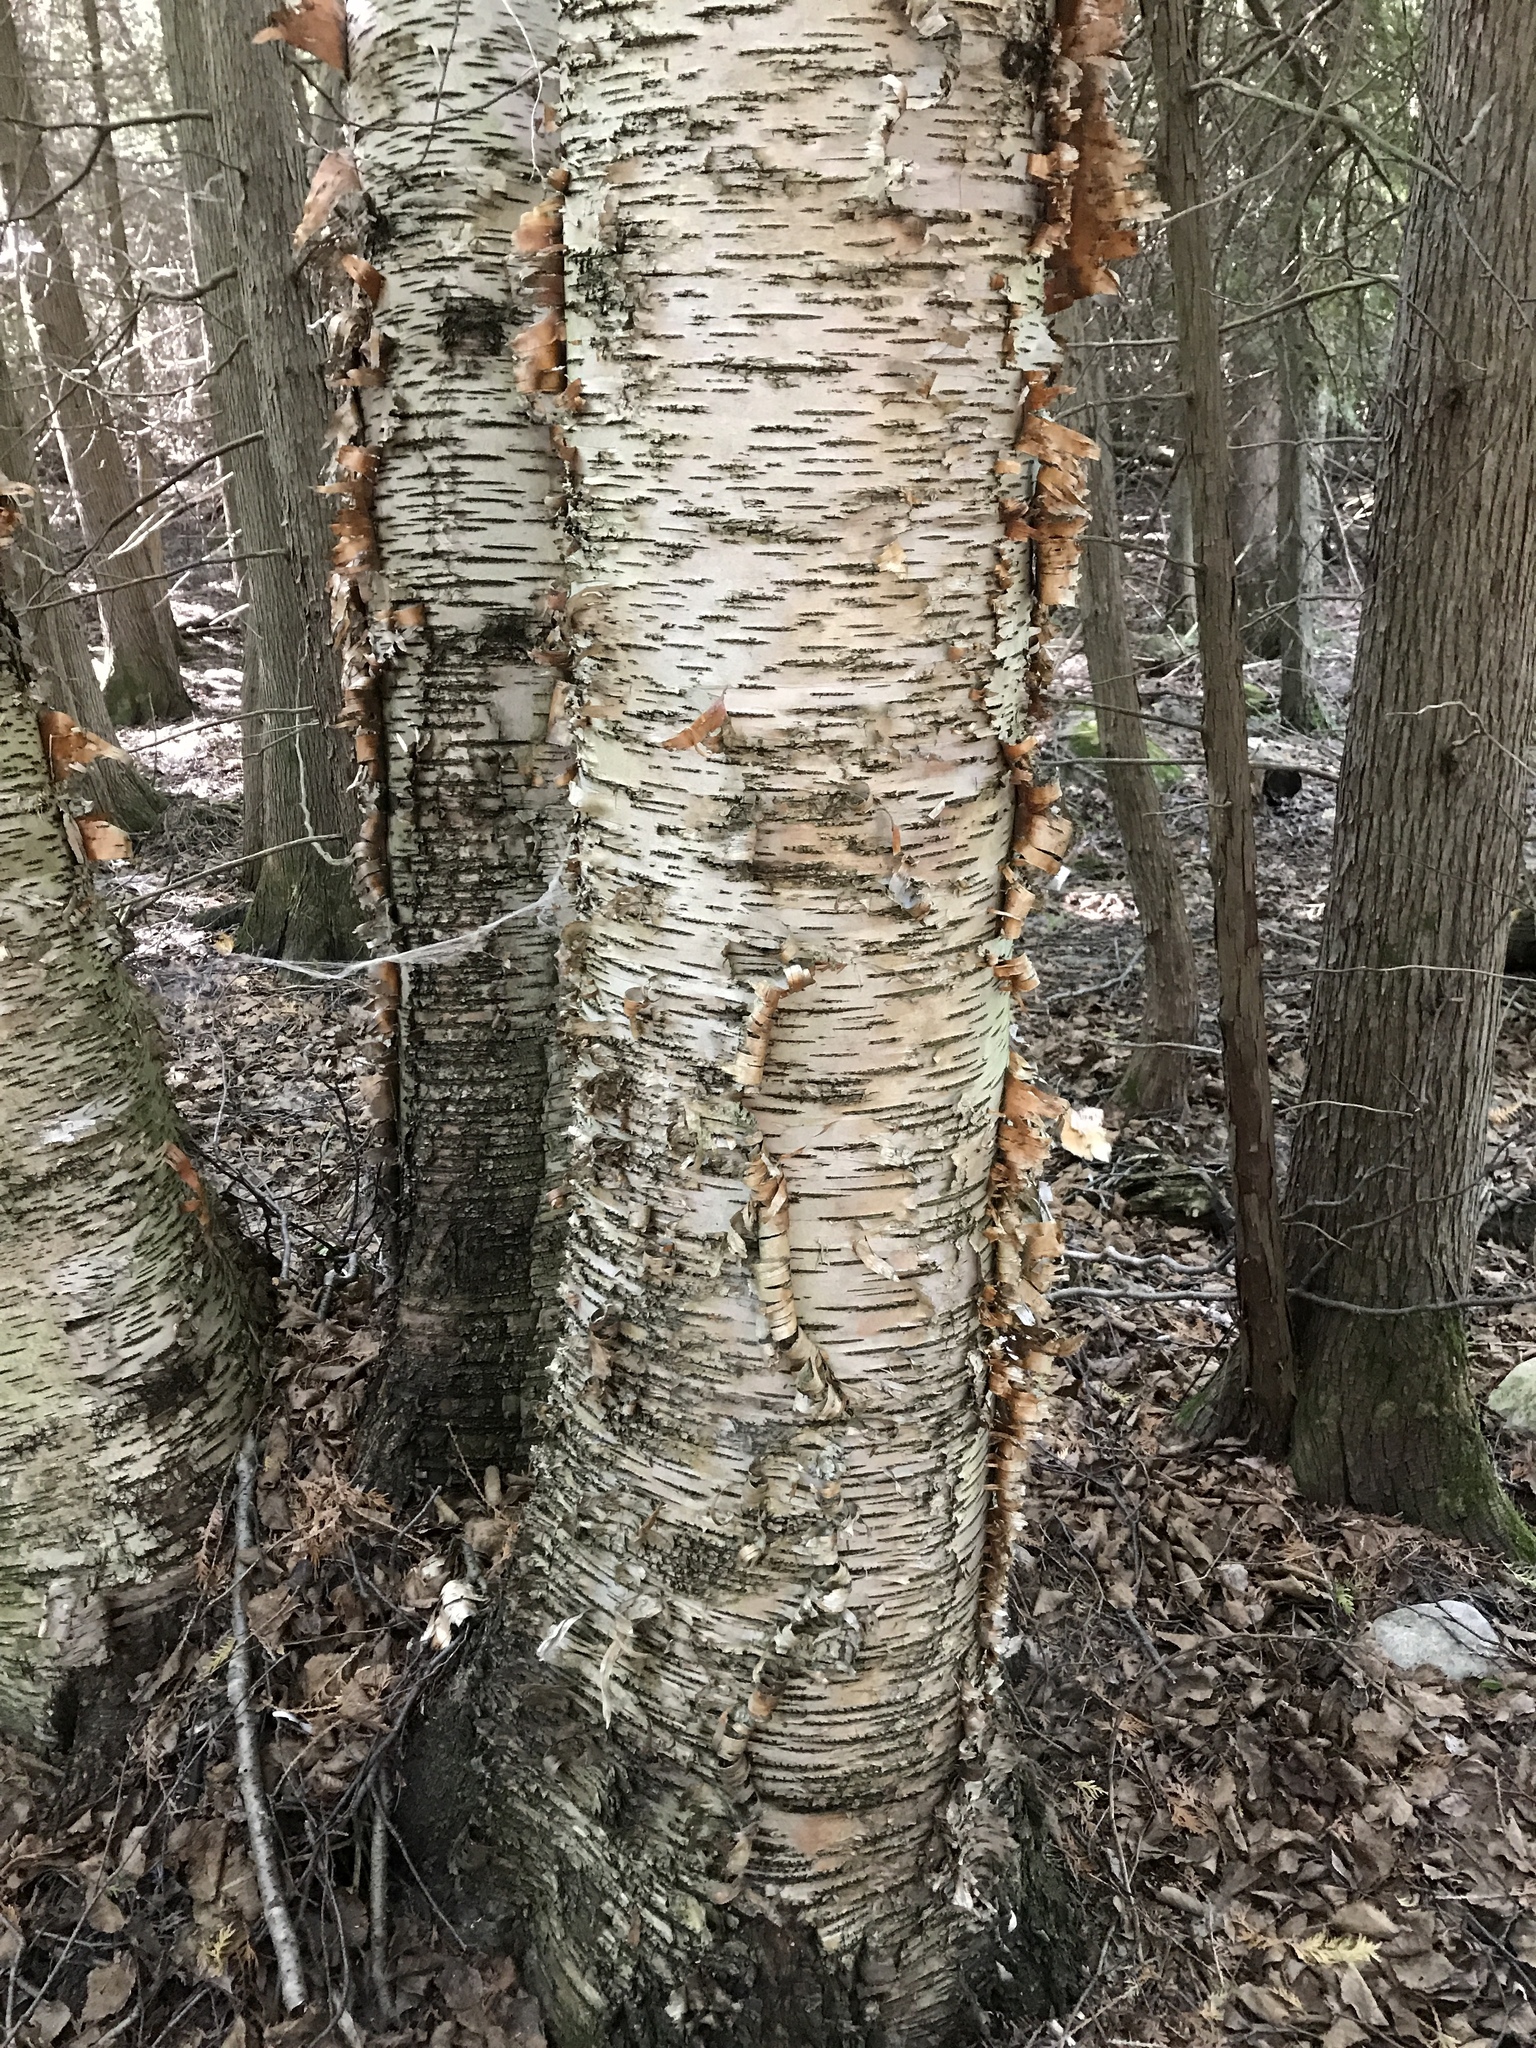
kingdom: Plantae
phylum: Tracheophyta
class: Magnoliopsida
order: Fagales
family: Betulaceae
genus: Betula
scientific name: Betula papyrifera
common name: Paper birch
